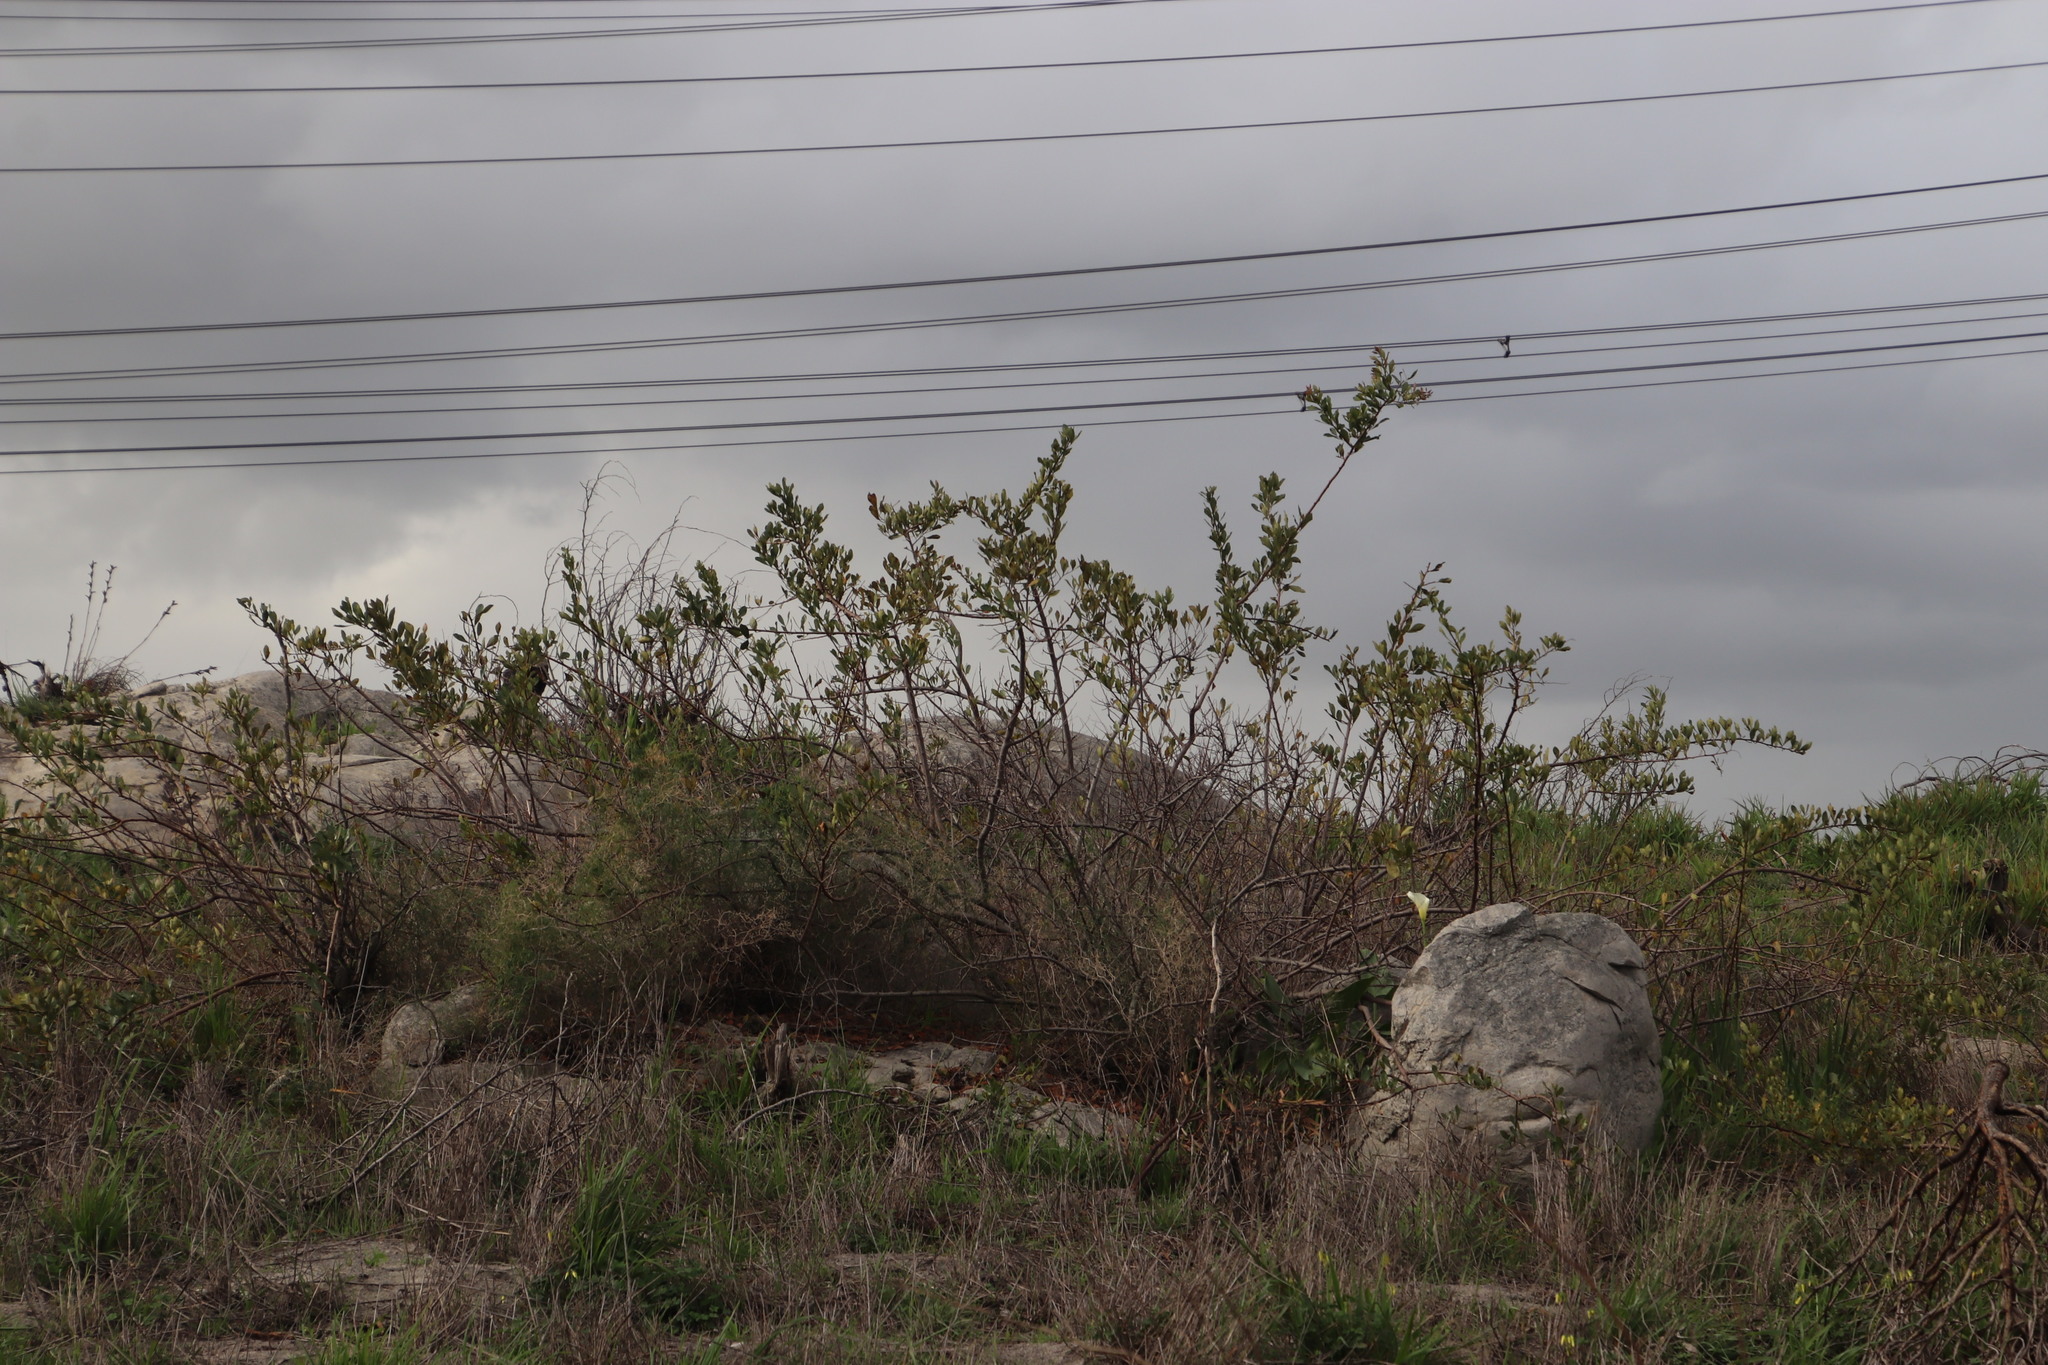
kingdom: Plantae
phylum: Tracheophyta
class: Magnoliopsida
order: Sapindales
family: Anacardiaceae
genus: Searsia
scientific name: Searsia laevigata
